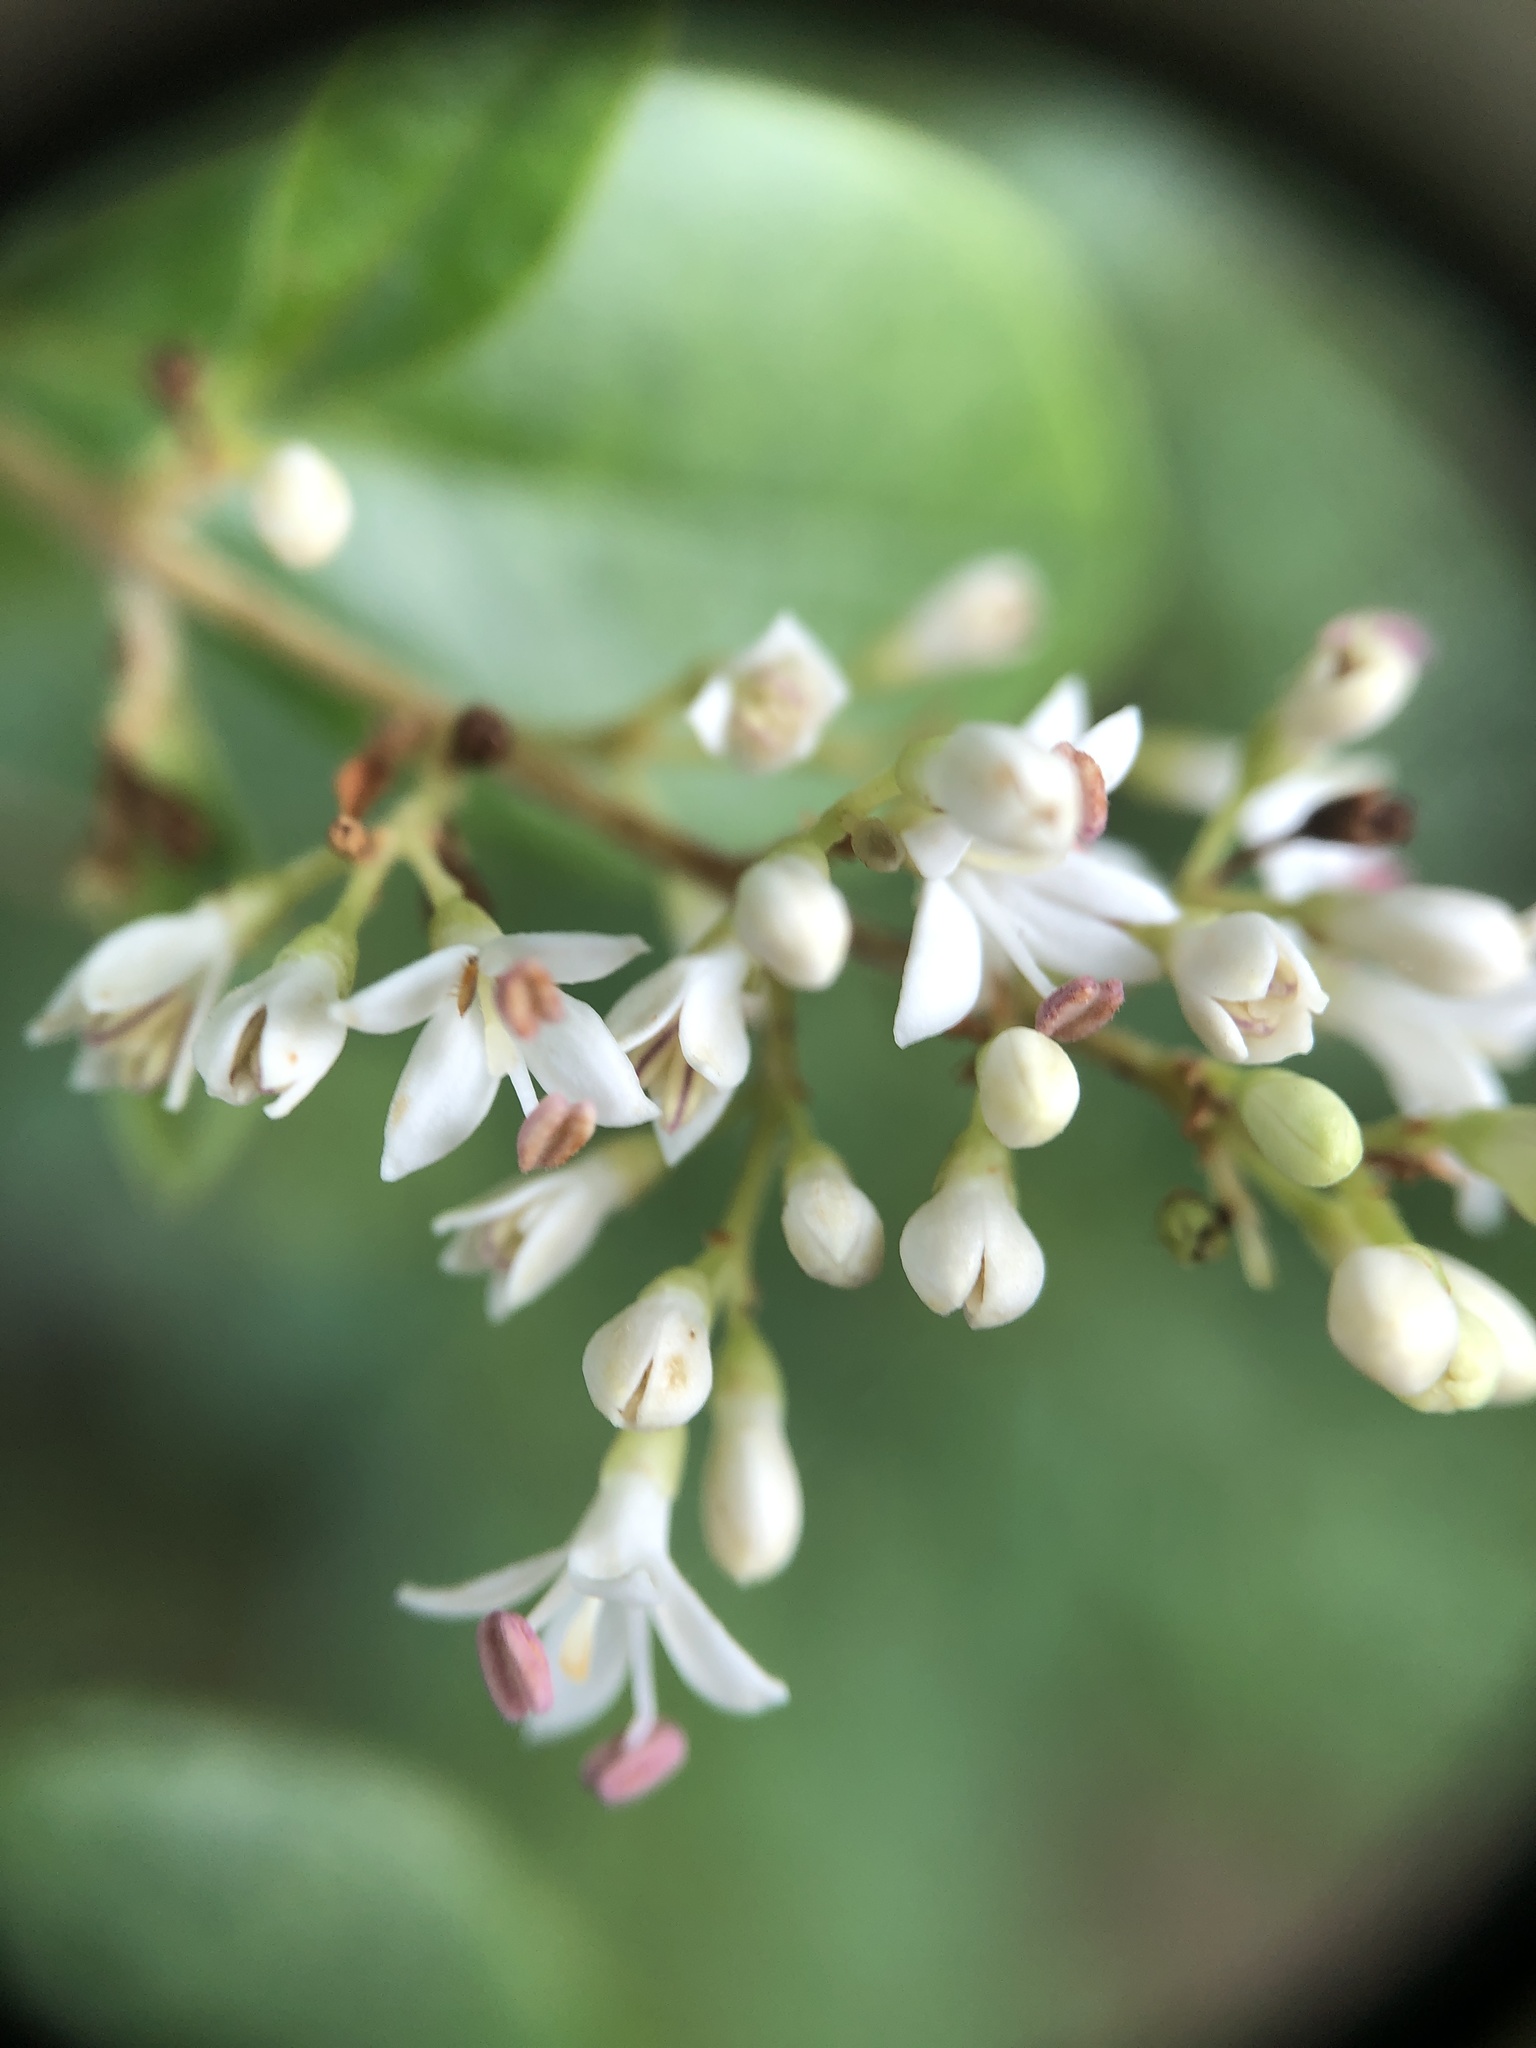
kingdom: Plantae
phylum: Tracheophyta
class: Magnoliopsida
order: Lamiales
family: Oleaceae
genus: Ligustrum
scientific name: Ligustrum sinense
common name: Chinese privet
